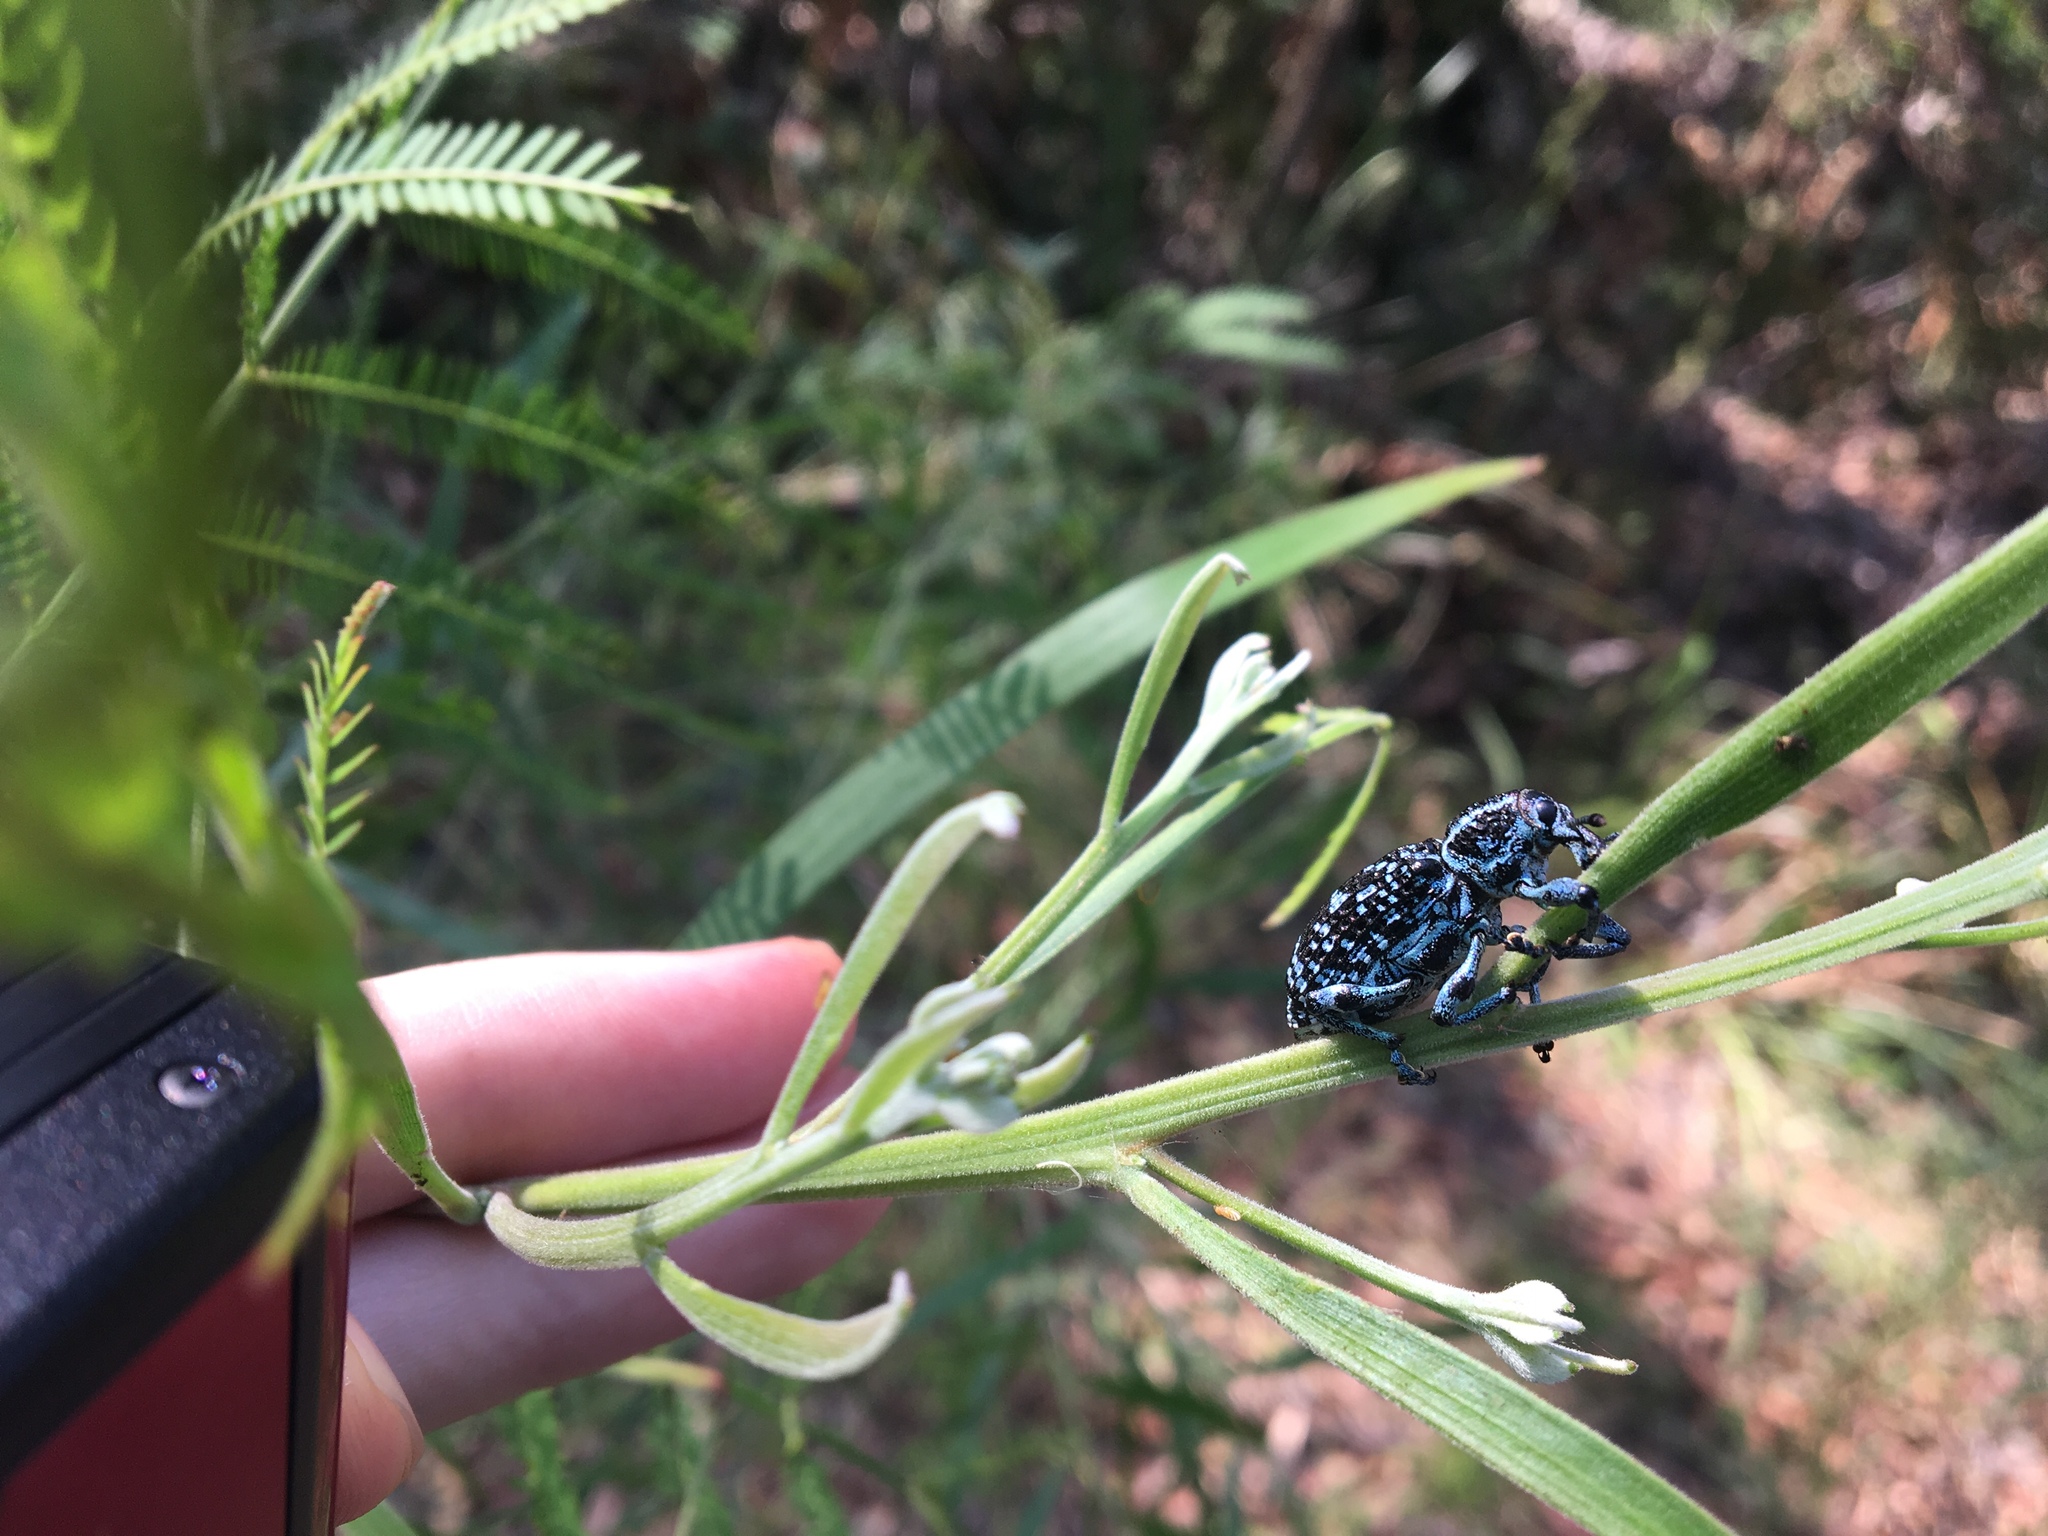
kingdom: Animalia
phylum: Arthropoda
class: Insecta
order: Coleoptera
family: Curculionidae
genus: Chrysolopus
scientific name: Chrysolopus spectabilis
